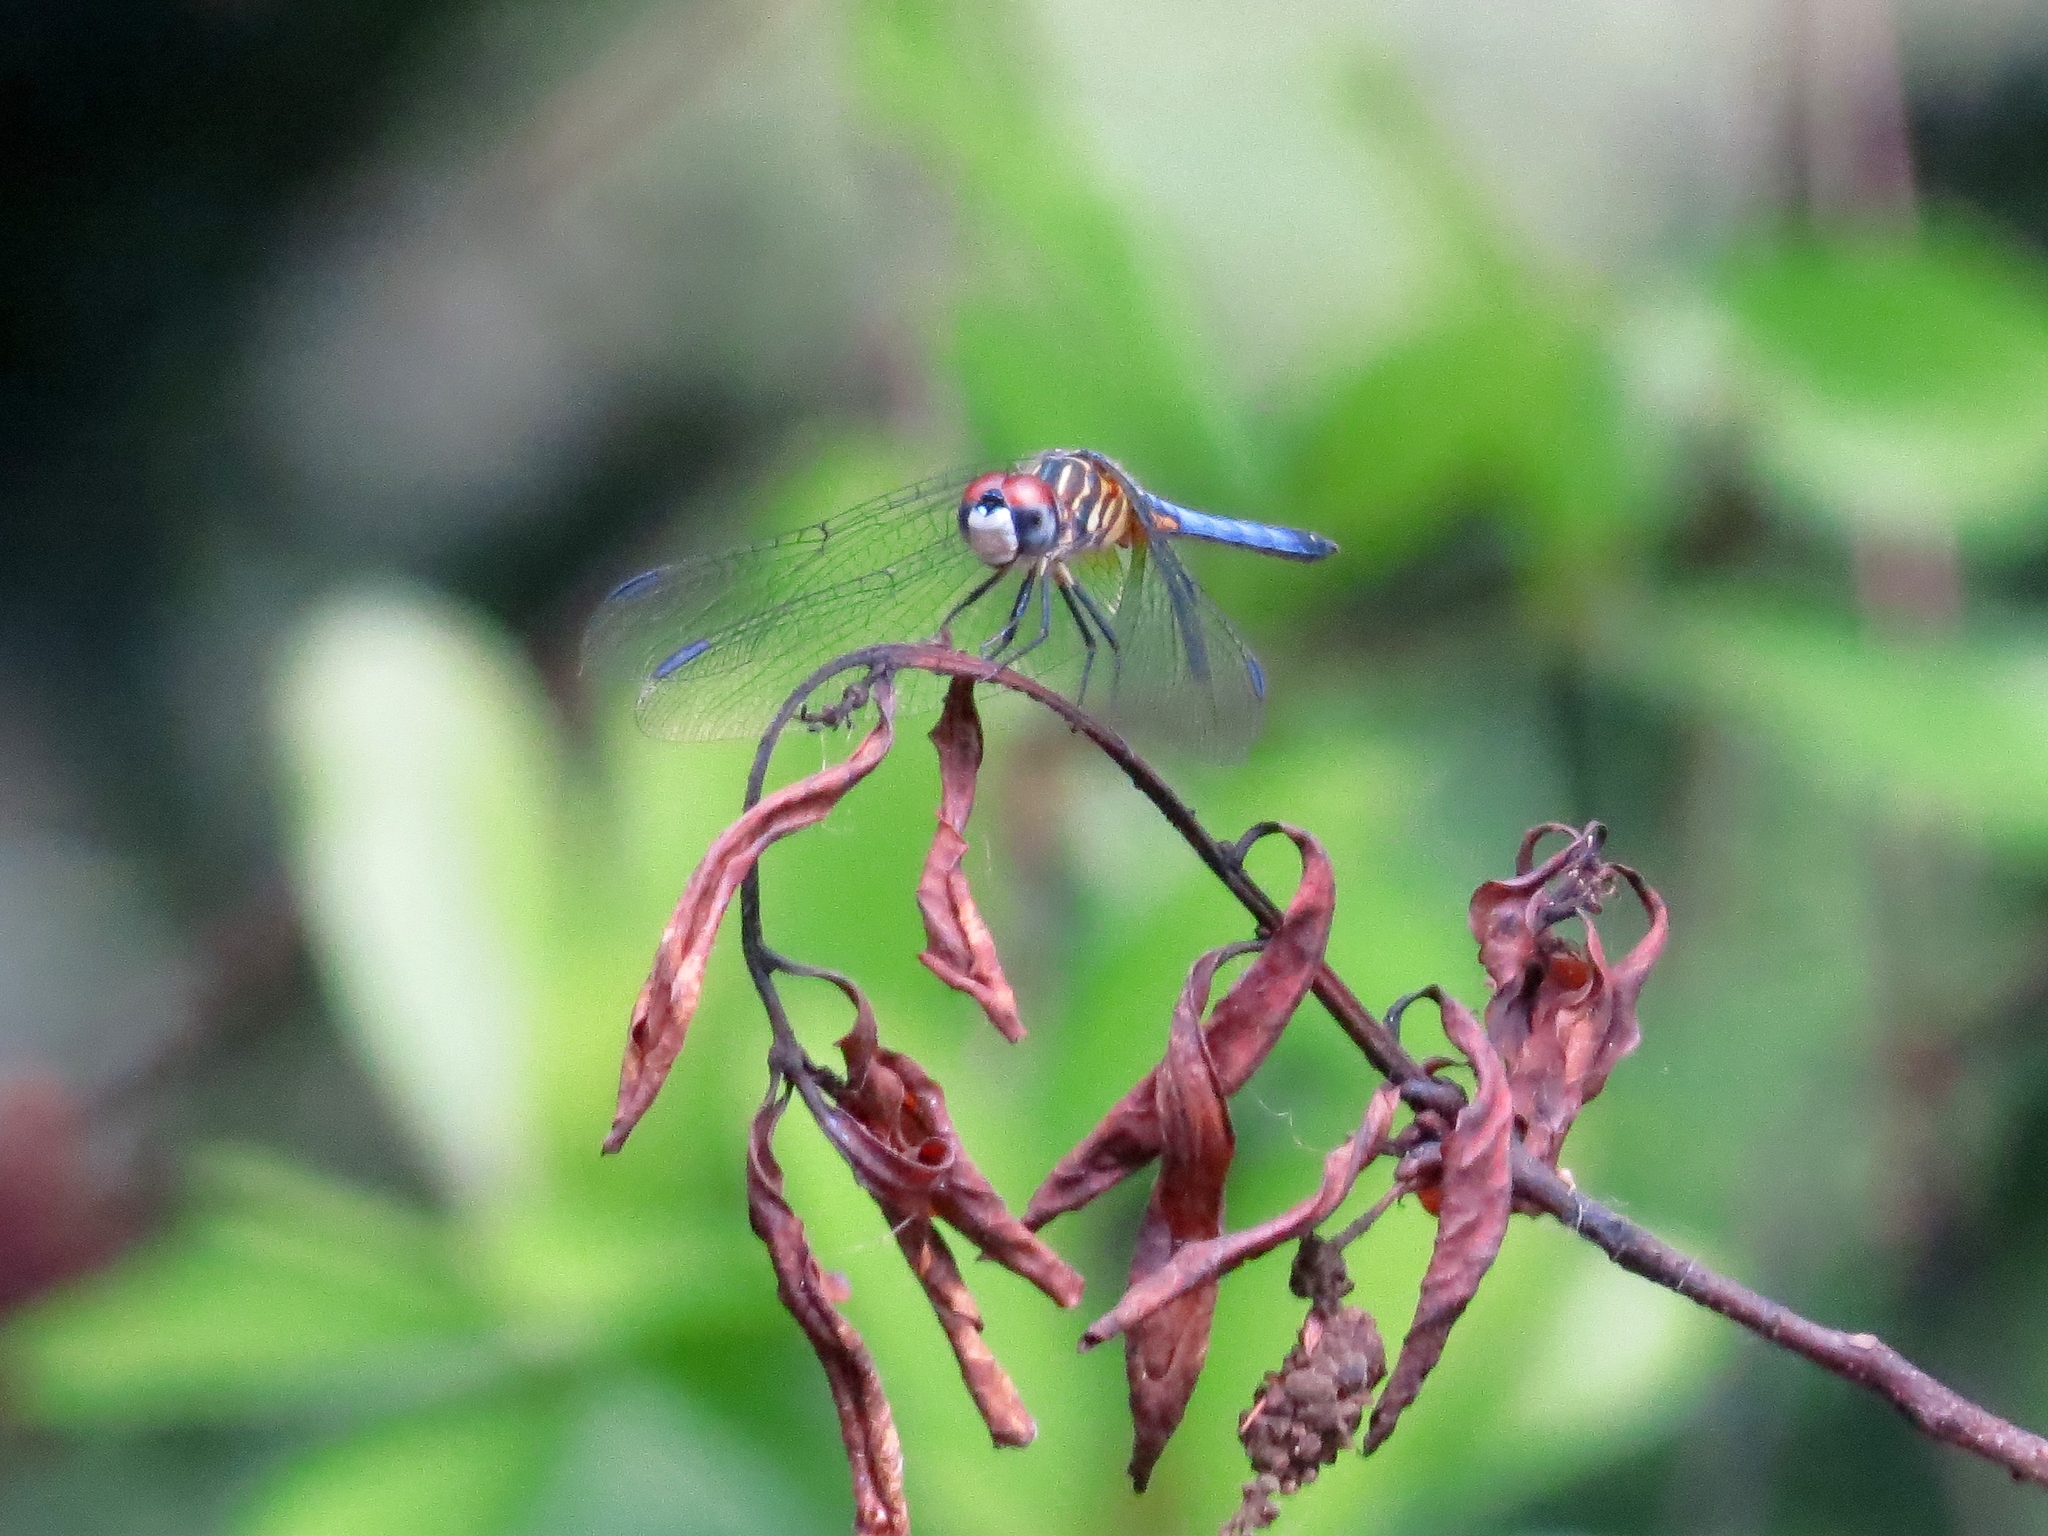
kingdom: Animalia
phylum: Arthropoda
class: Insecta
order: Odonata
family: Libellulidae
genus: Pachydiplax
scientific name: Pachydiplax longipennis
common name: Blue dasher
